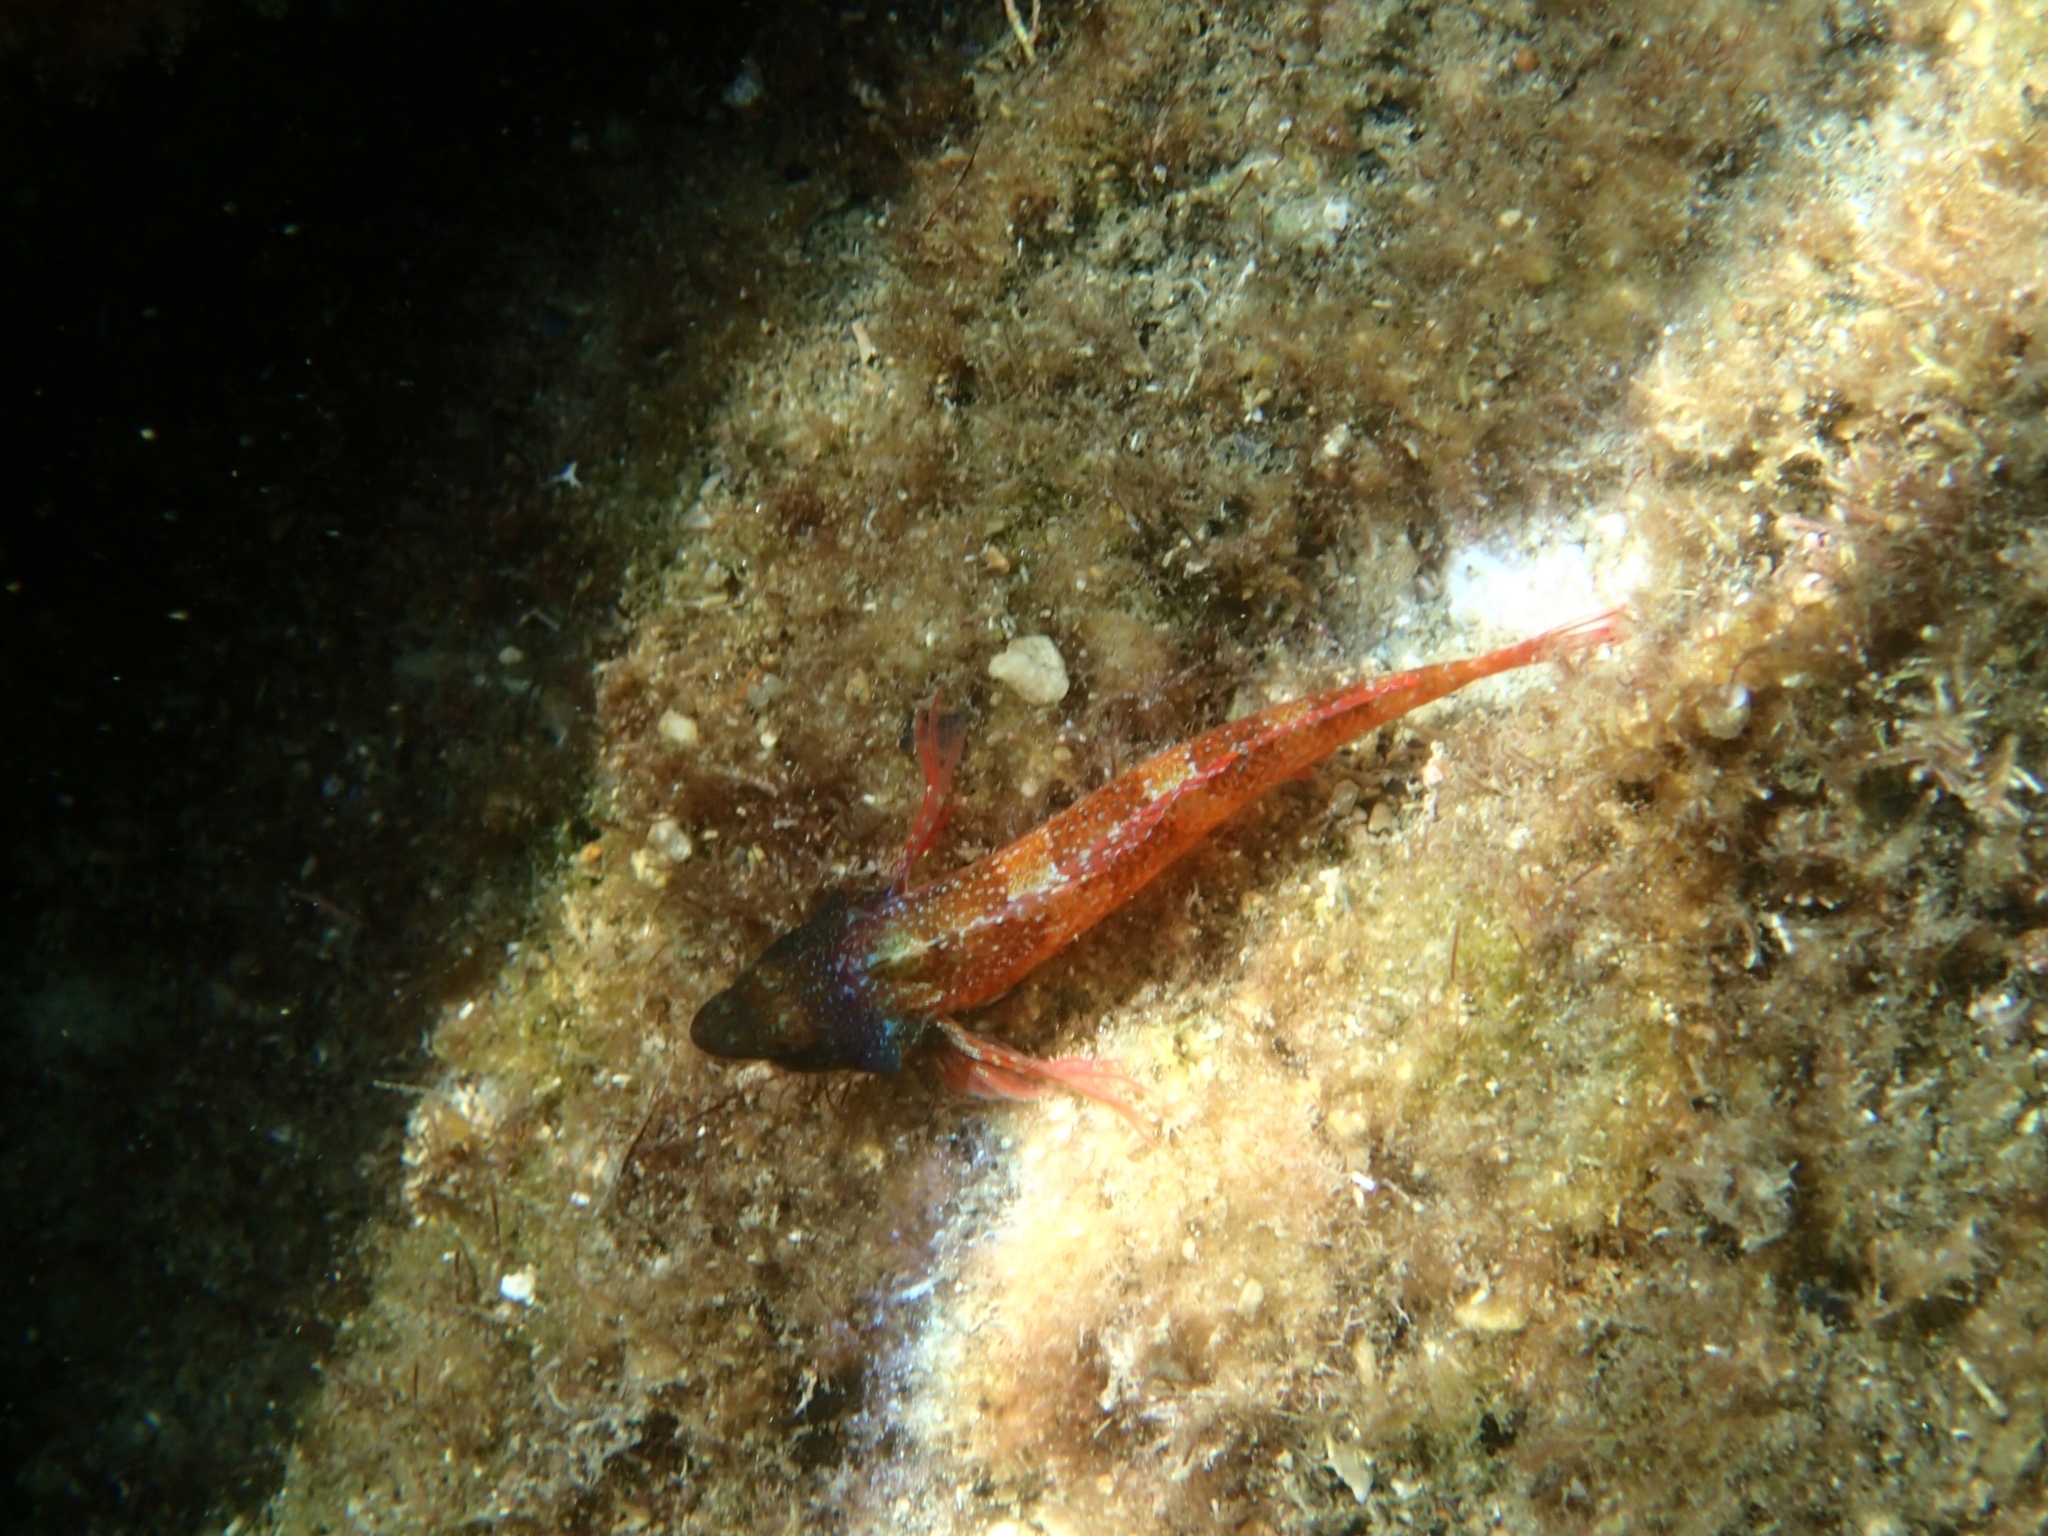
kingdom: Animalia
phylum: Chordata
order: Perciformes
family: Tripterygiidae
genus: Tripterygion
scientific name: Tripterygion tripteronotum
